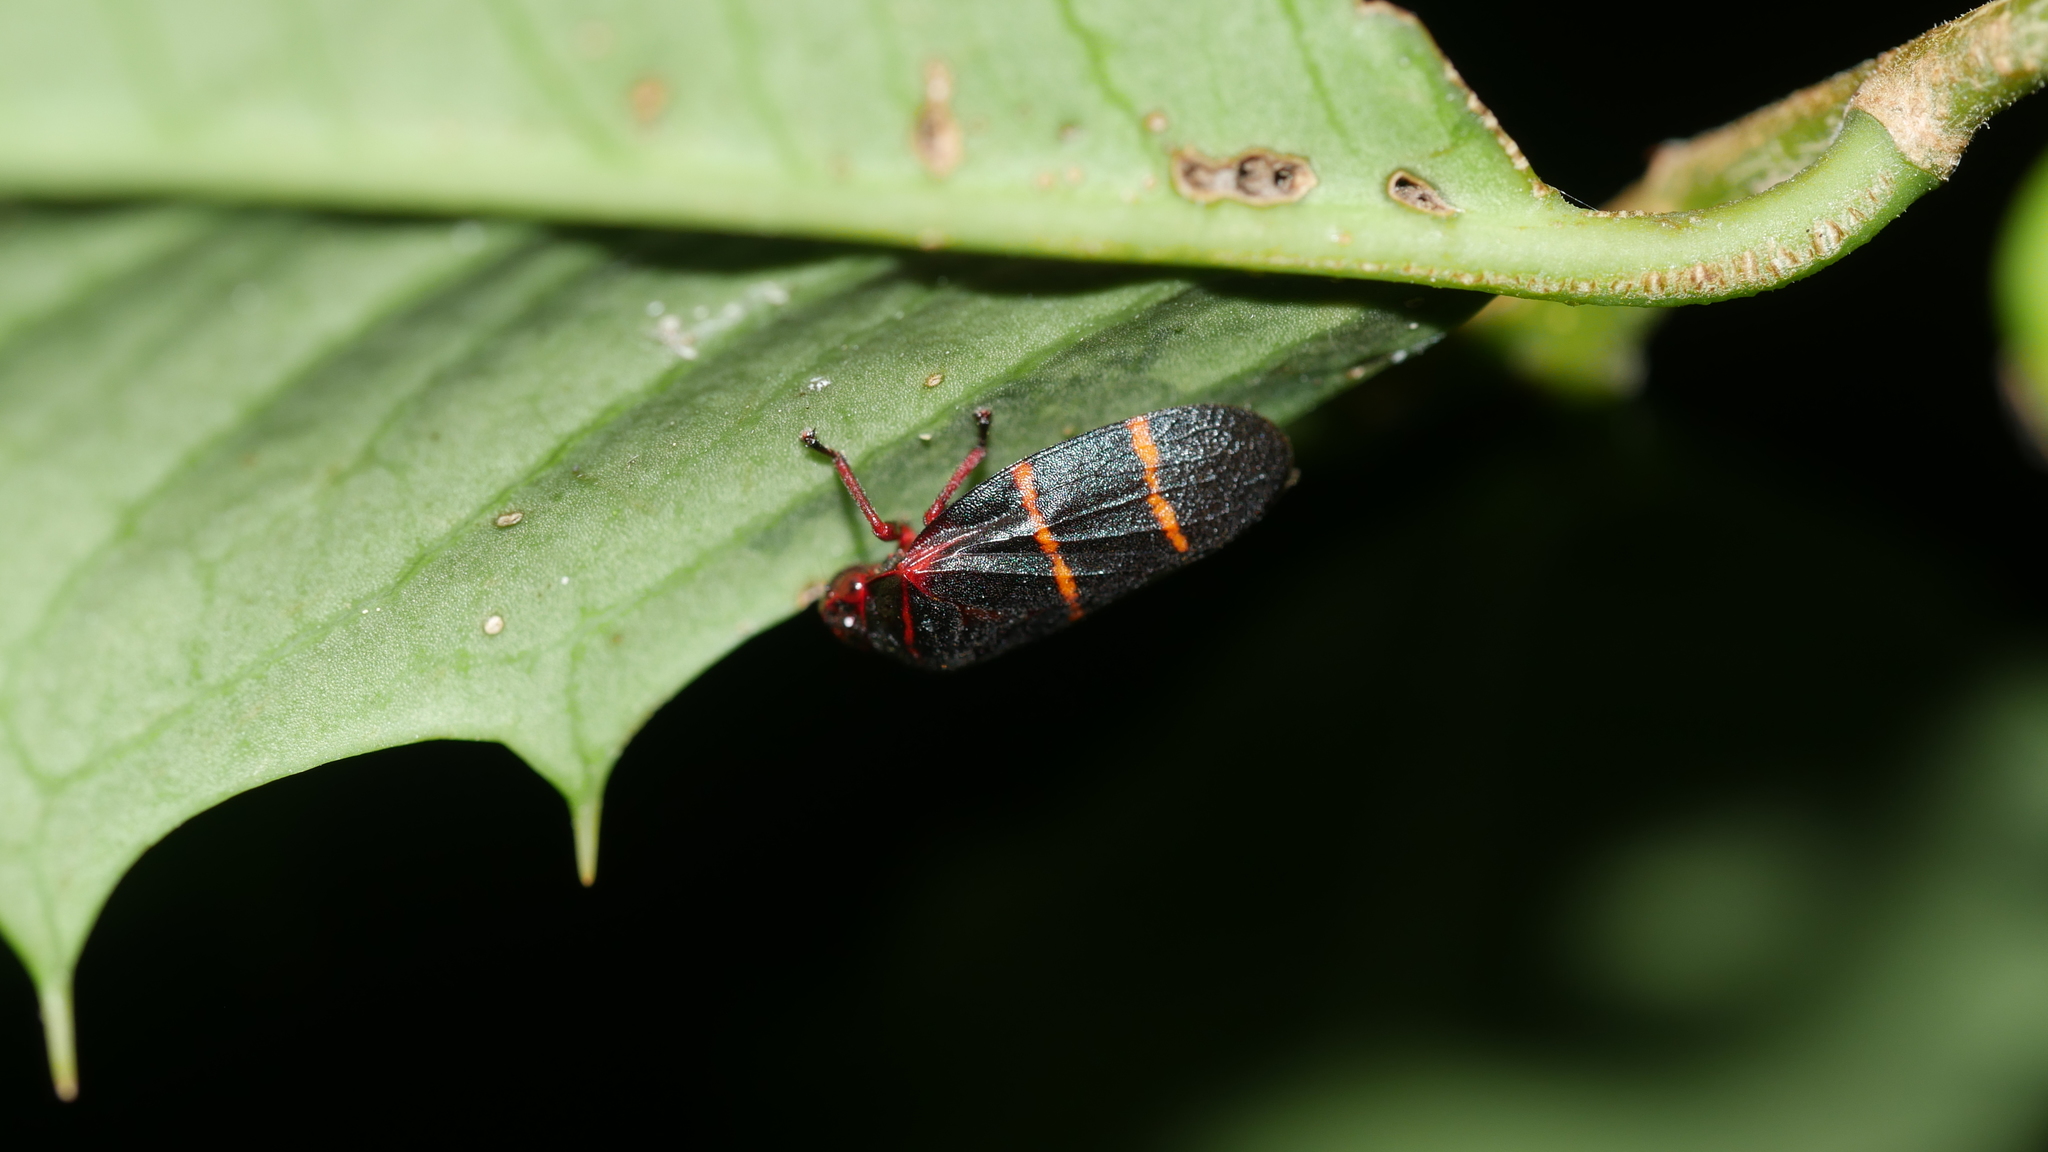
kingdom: Animalia
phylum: Arthropoda
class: Insecta
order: Hemiptera
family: Cercopidae
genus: Prosapia
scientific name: Prosapia bicincta
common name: Twolined spittlebug
